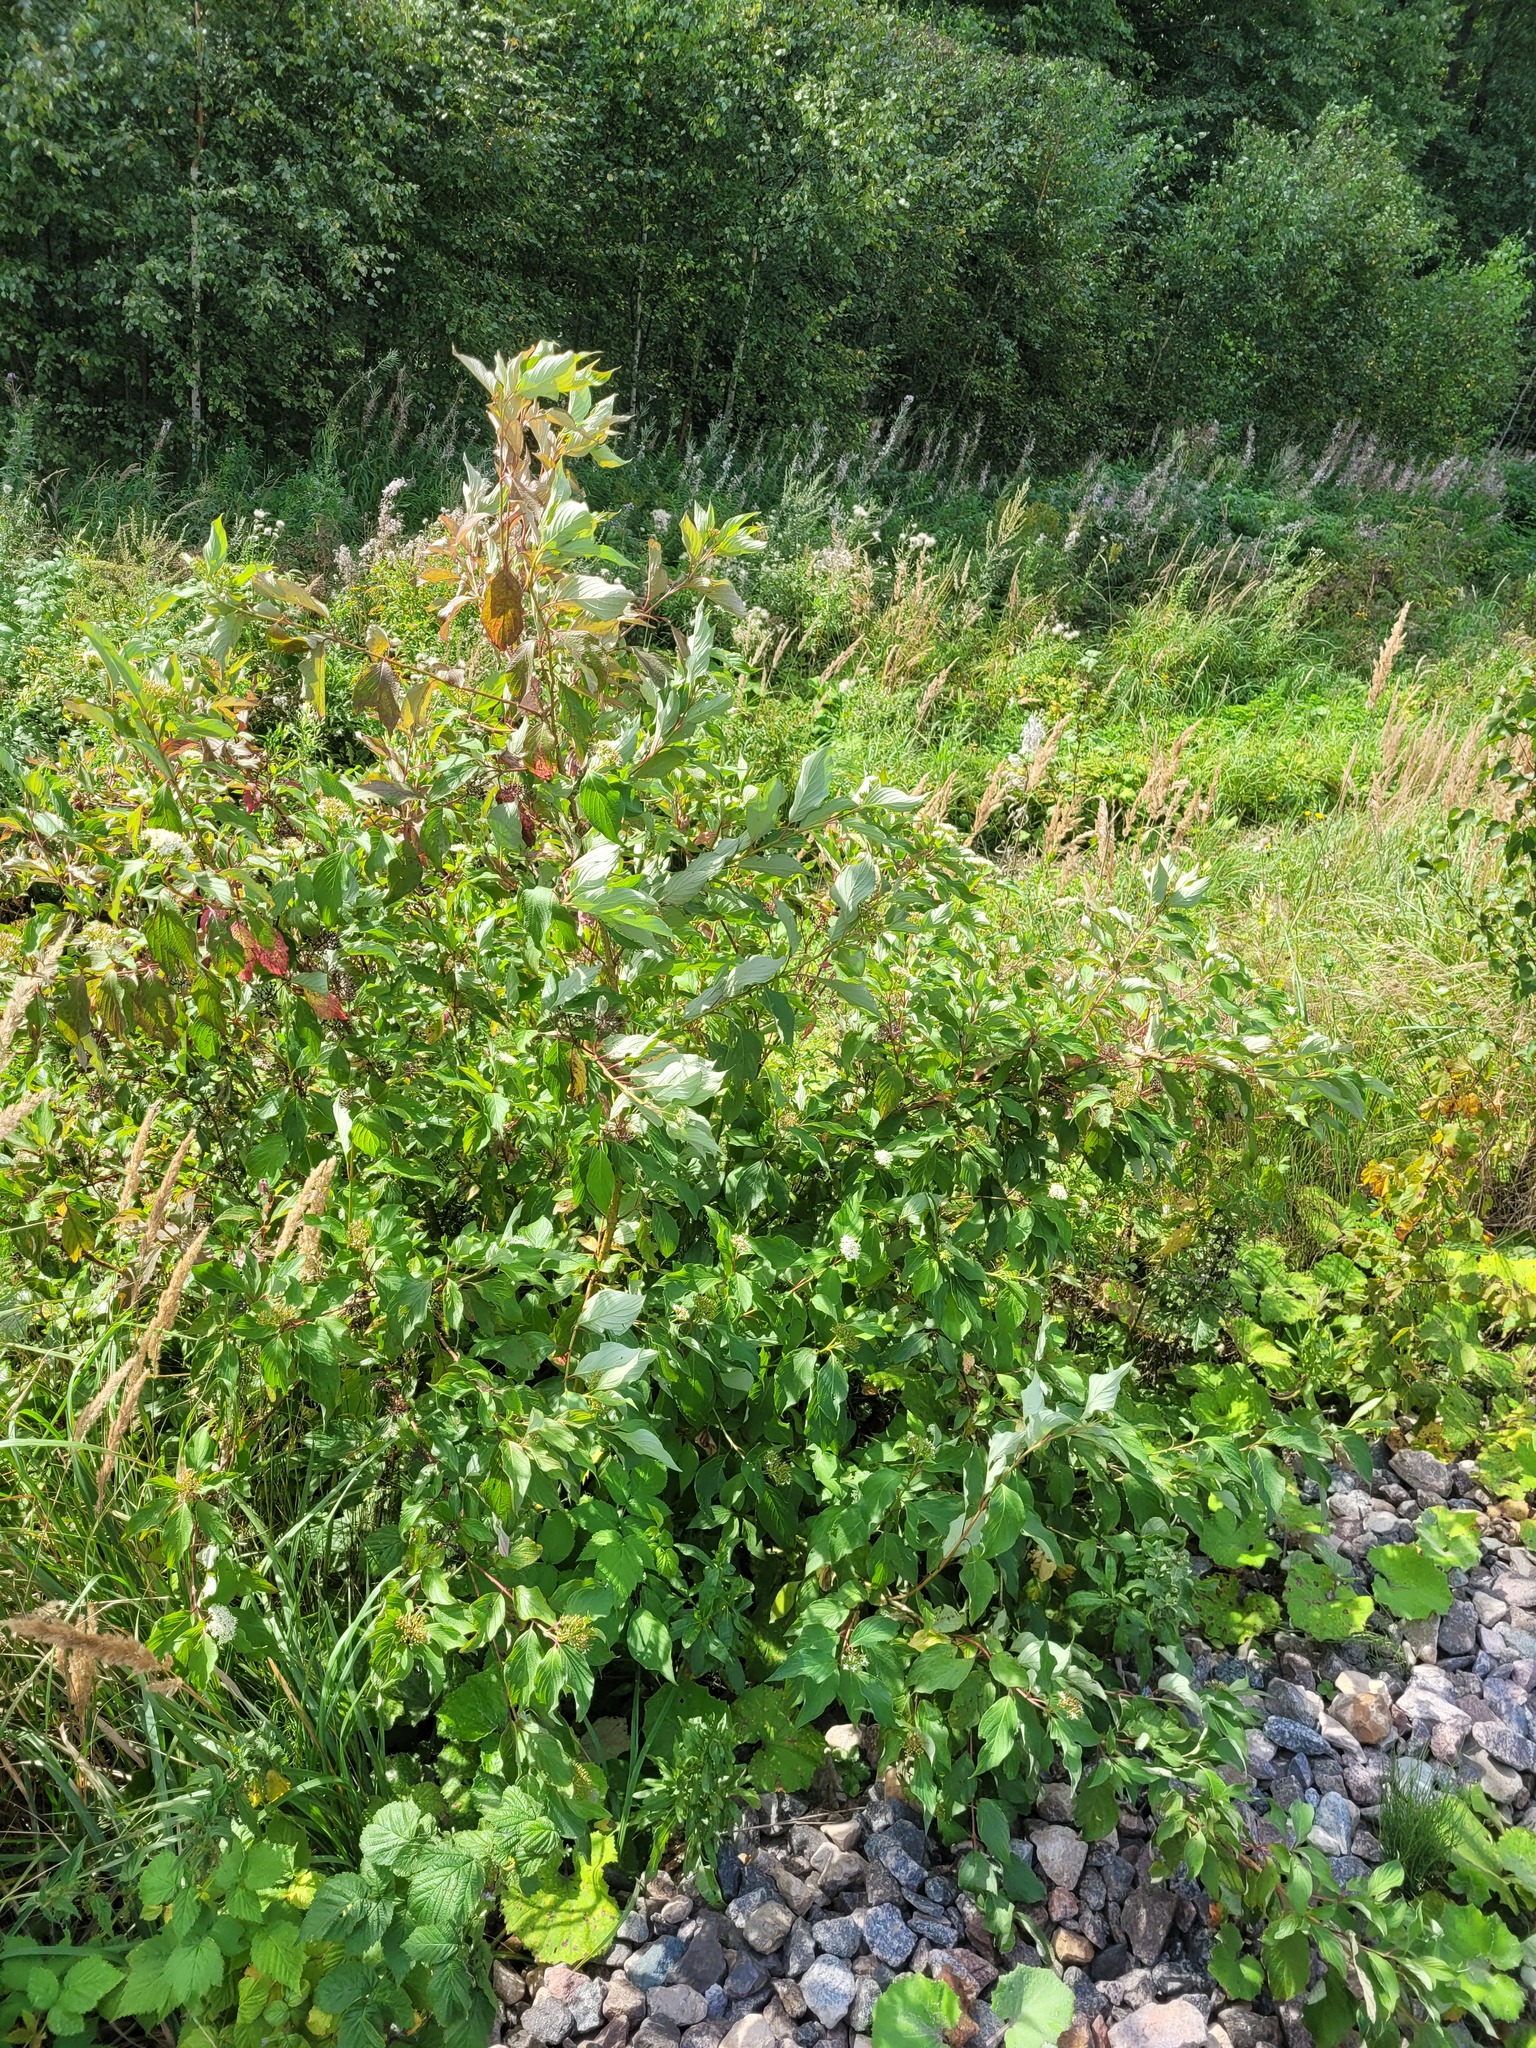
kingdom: Plantae
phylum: Tracheophyta
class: Magnoliopsida
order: Cornales
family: Cornaceae
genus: Cornus
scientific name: Cornus alba
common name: White dogwood
